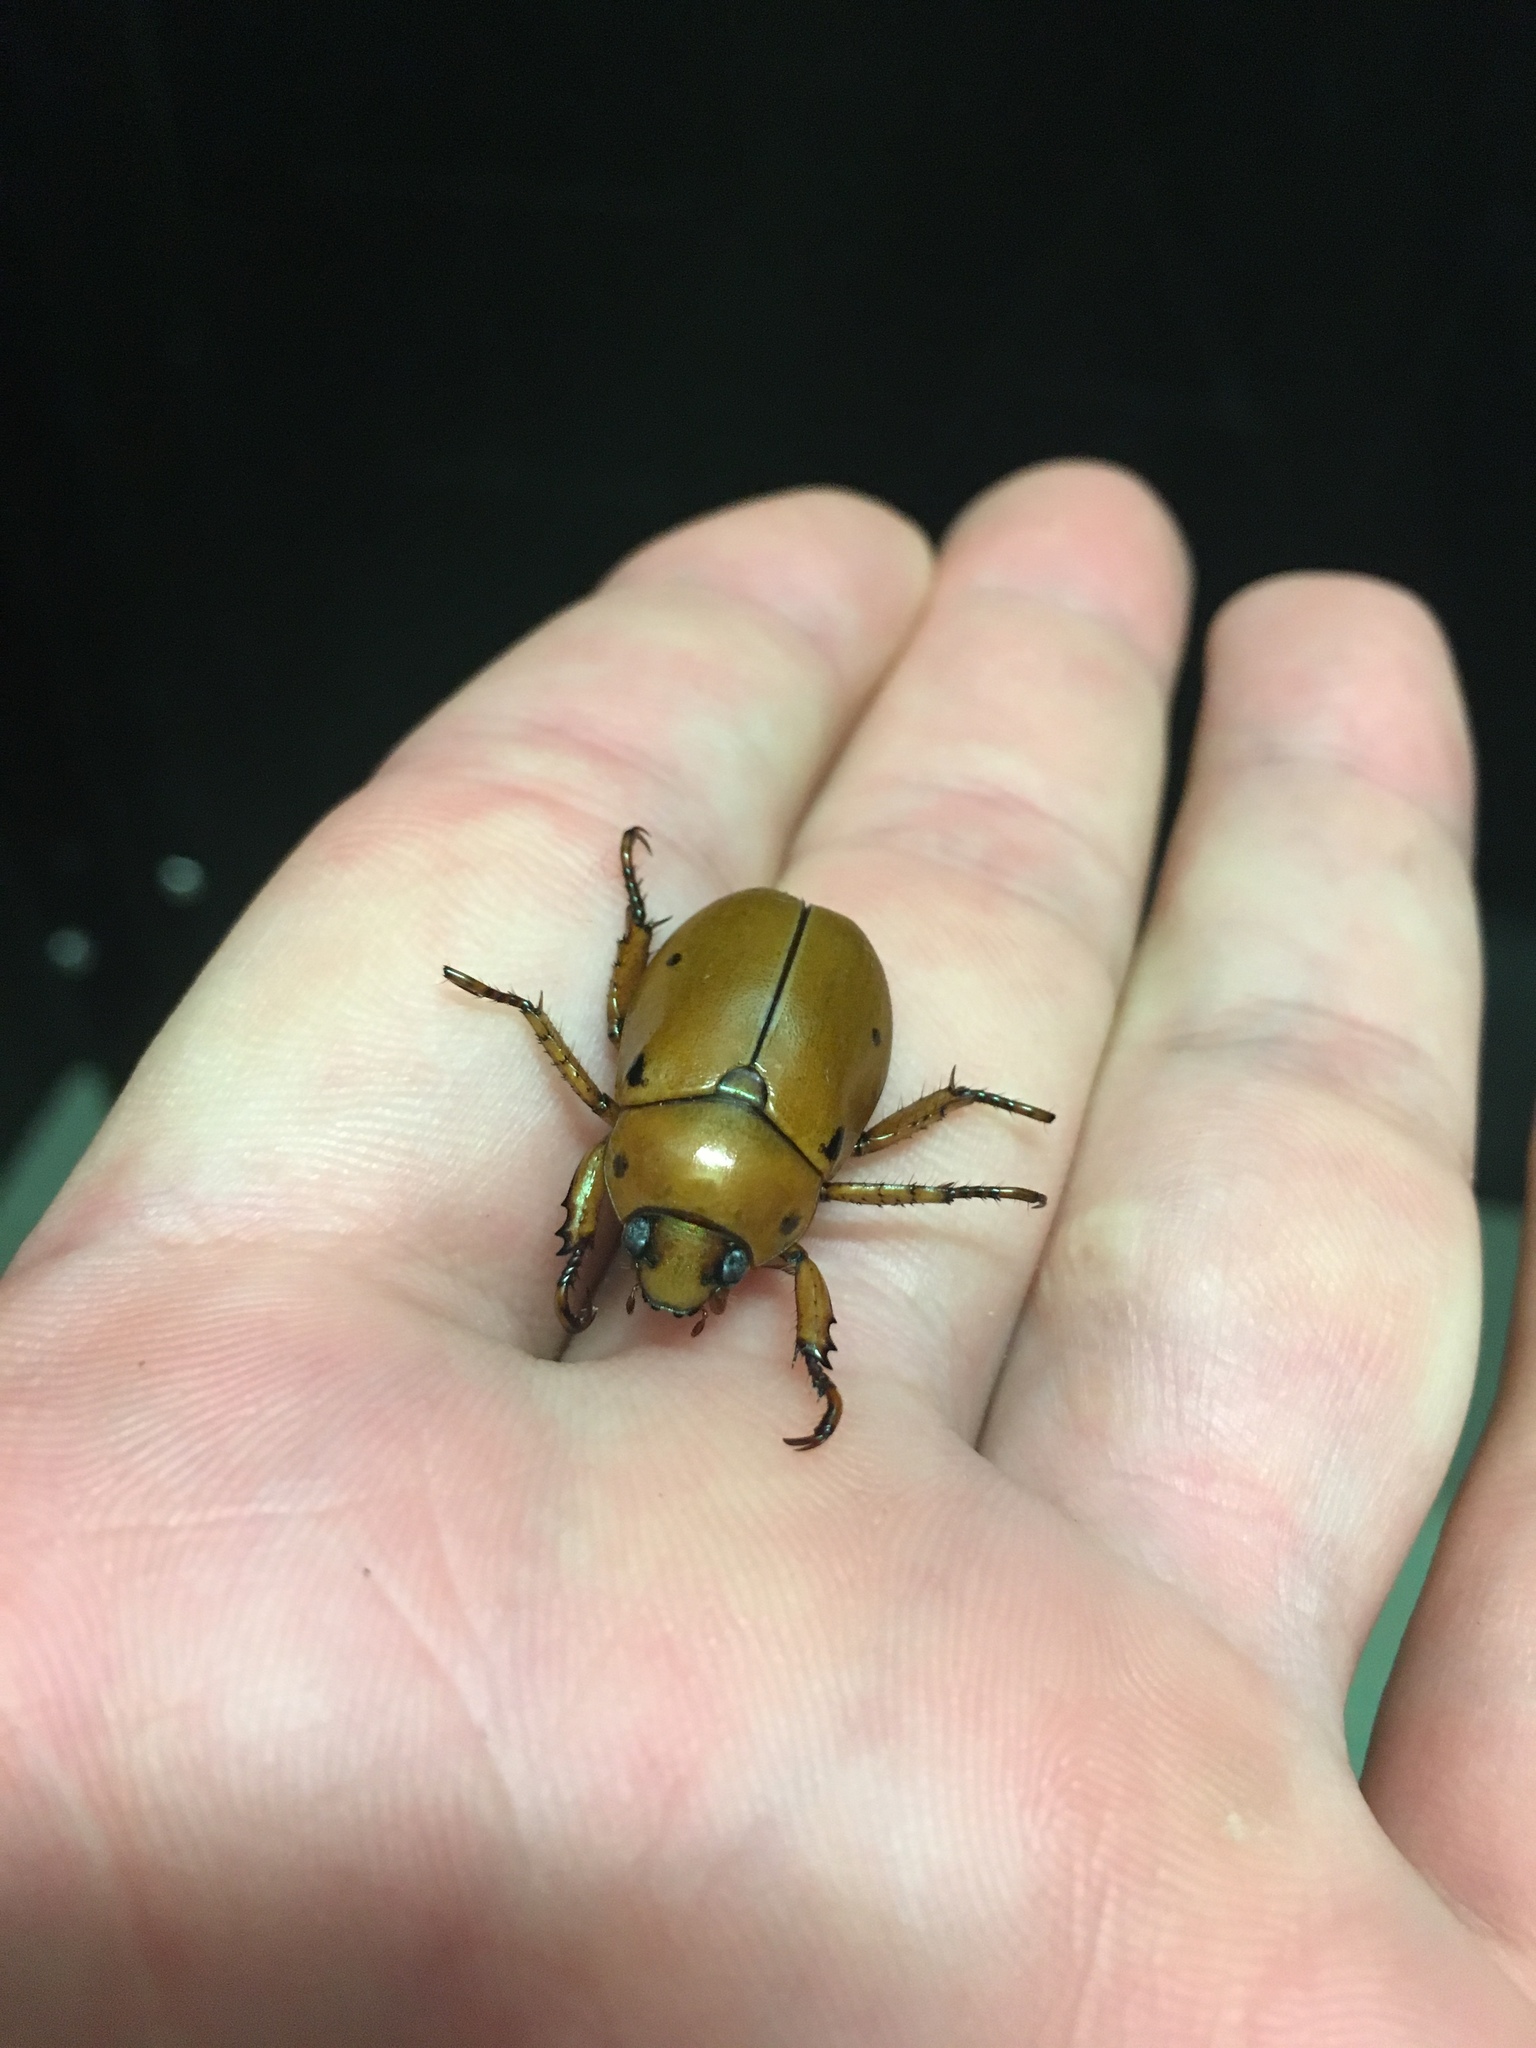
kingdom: Animalia
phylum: Arthropoda
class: Insecta
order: Coleoptera
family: Scarabaeidae
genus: Pelidnota
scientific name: Pelidnota punctata
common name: Grapevine beetle
